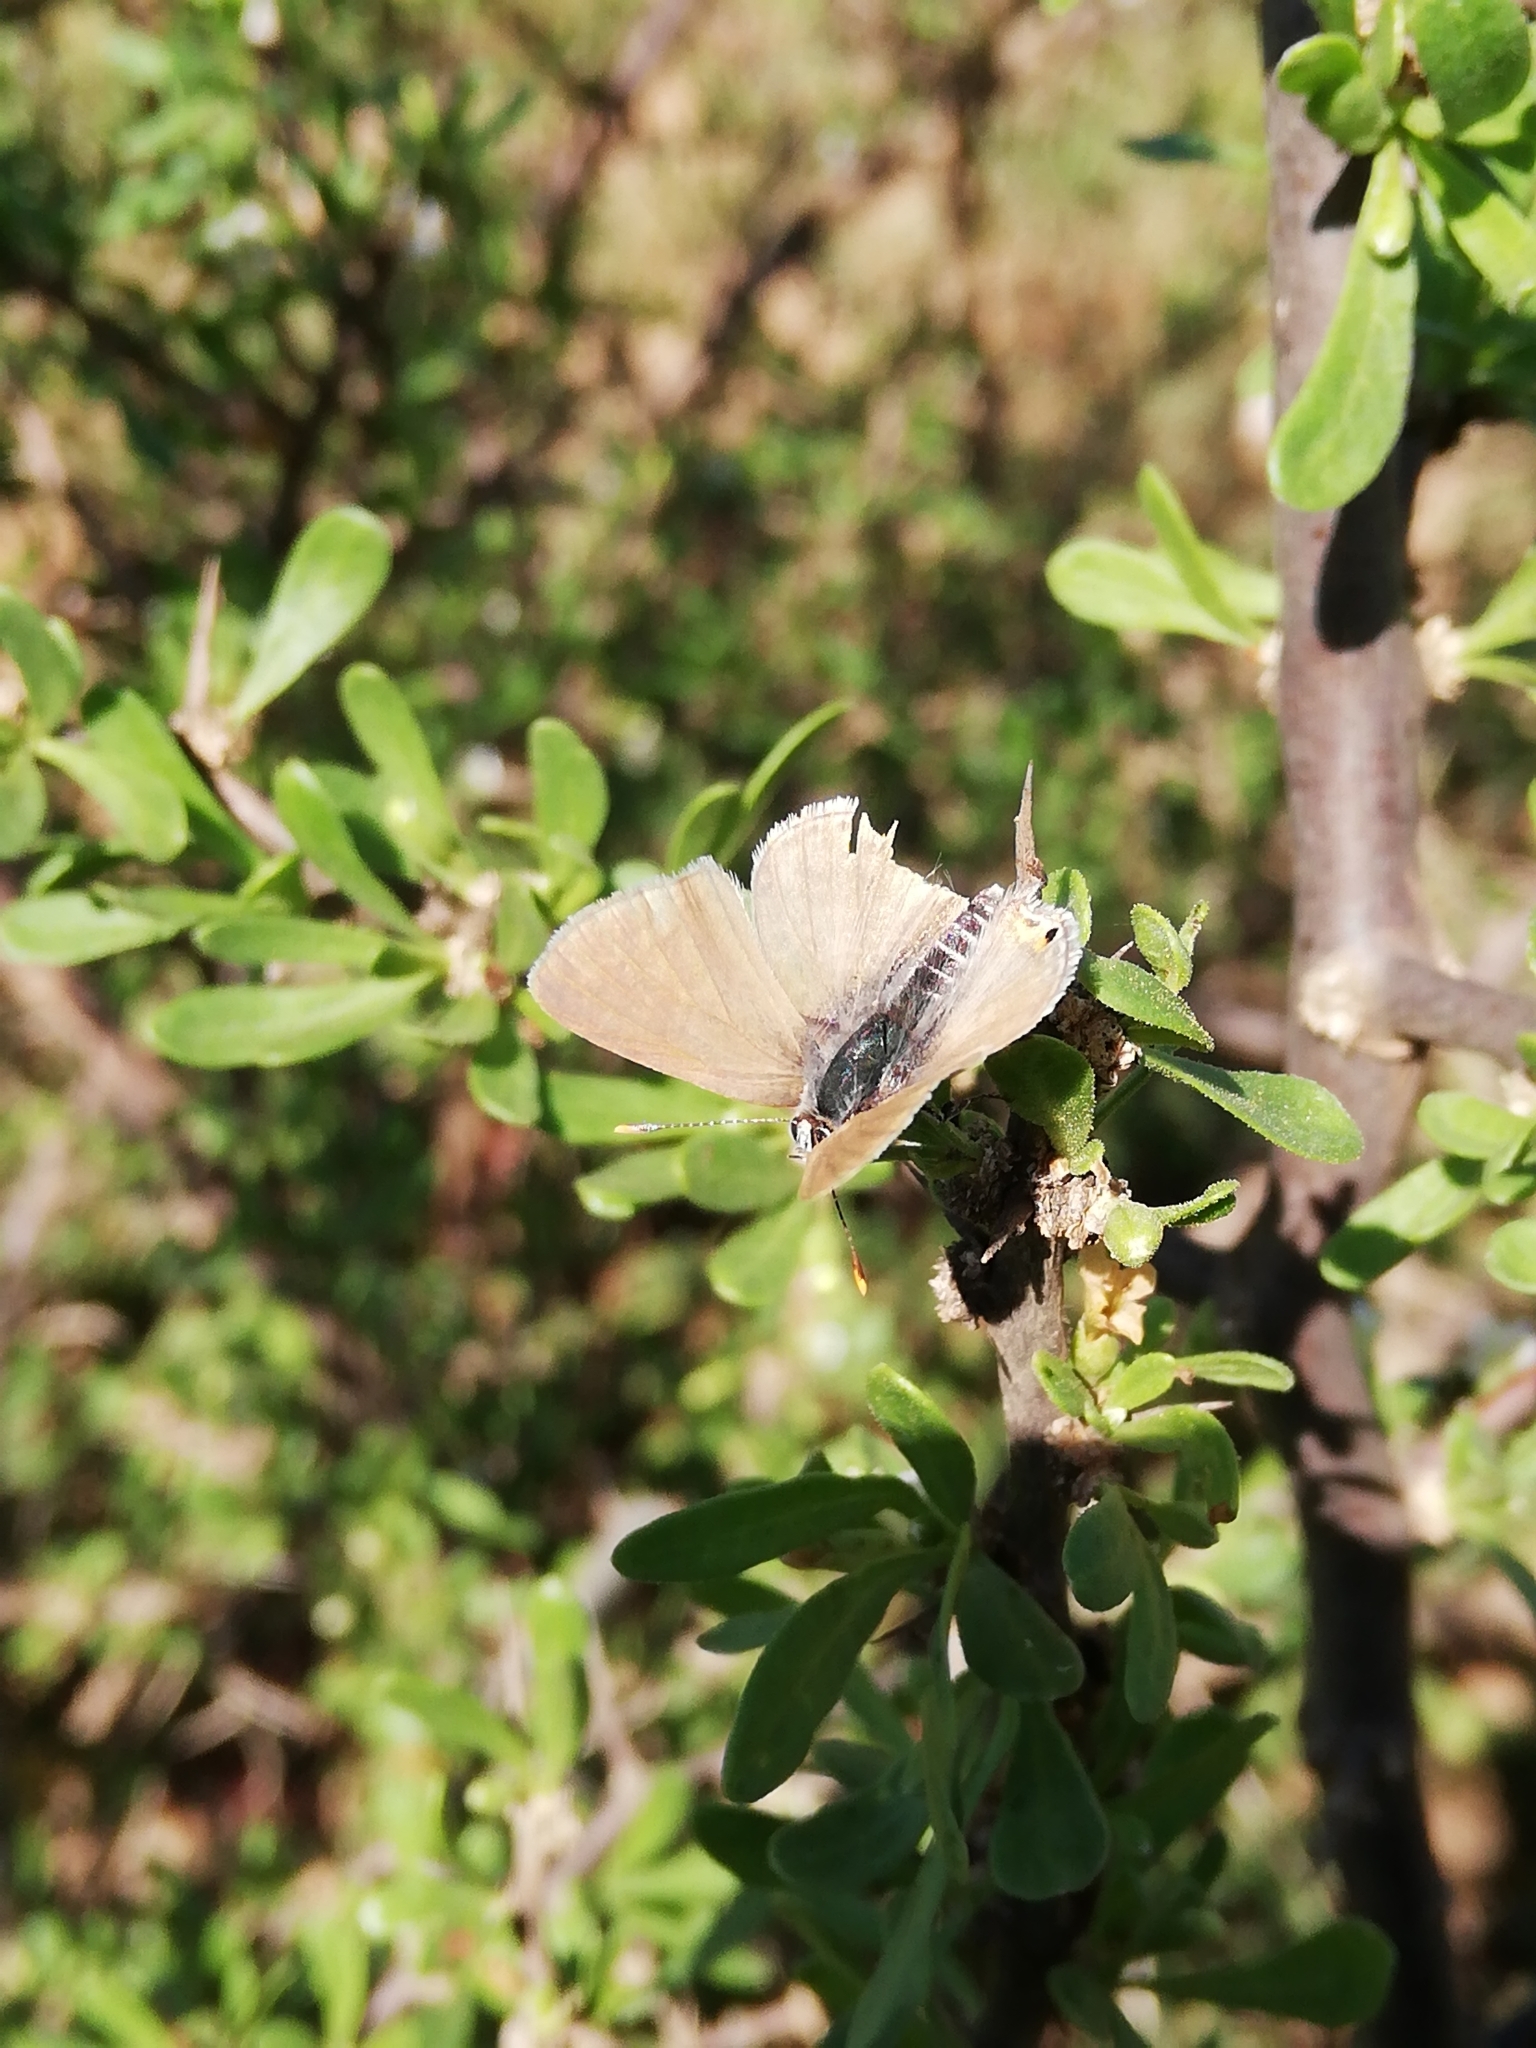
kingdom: Animalia
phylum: Arthropoda
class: Insecta
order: Lepidoptera
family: Lycaenidae
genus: Anthene
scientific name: Anthene amarah
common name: Black-striped hairtail
